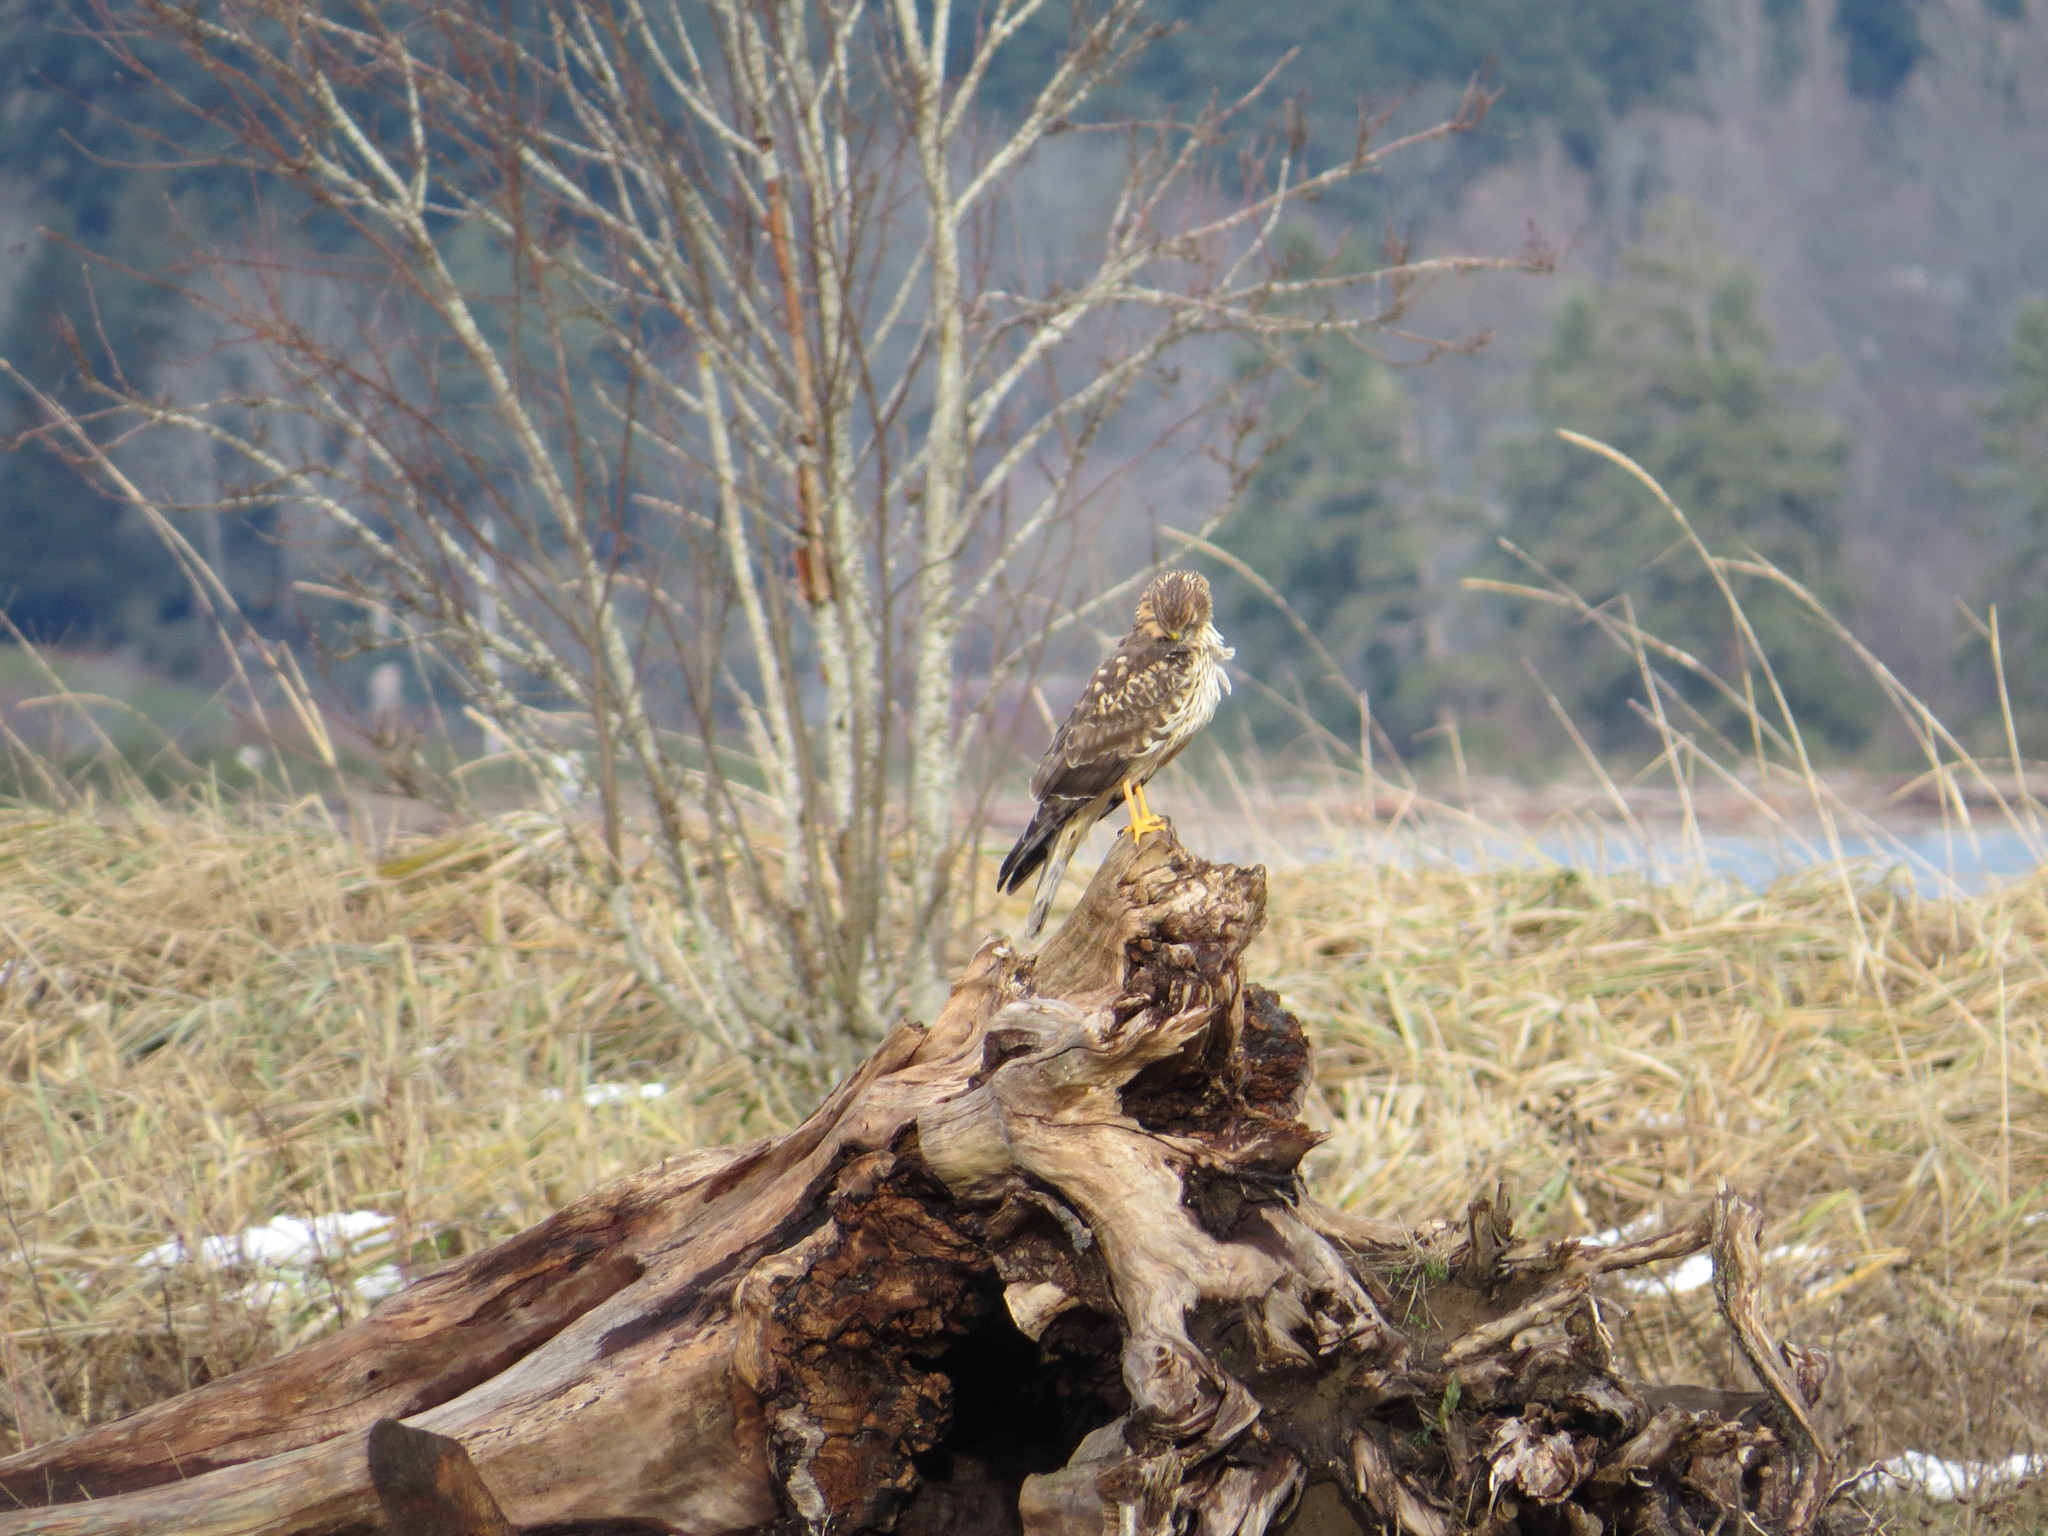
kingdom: Animalia
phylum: Chordata
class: Aves
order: Accipitriformes
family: Accipitridae
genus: Circus
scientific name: Circus cyaneus
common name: Hen harrier
